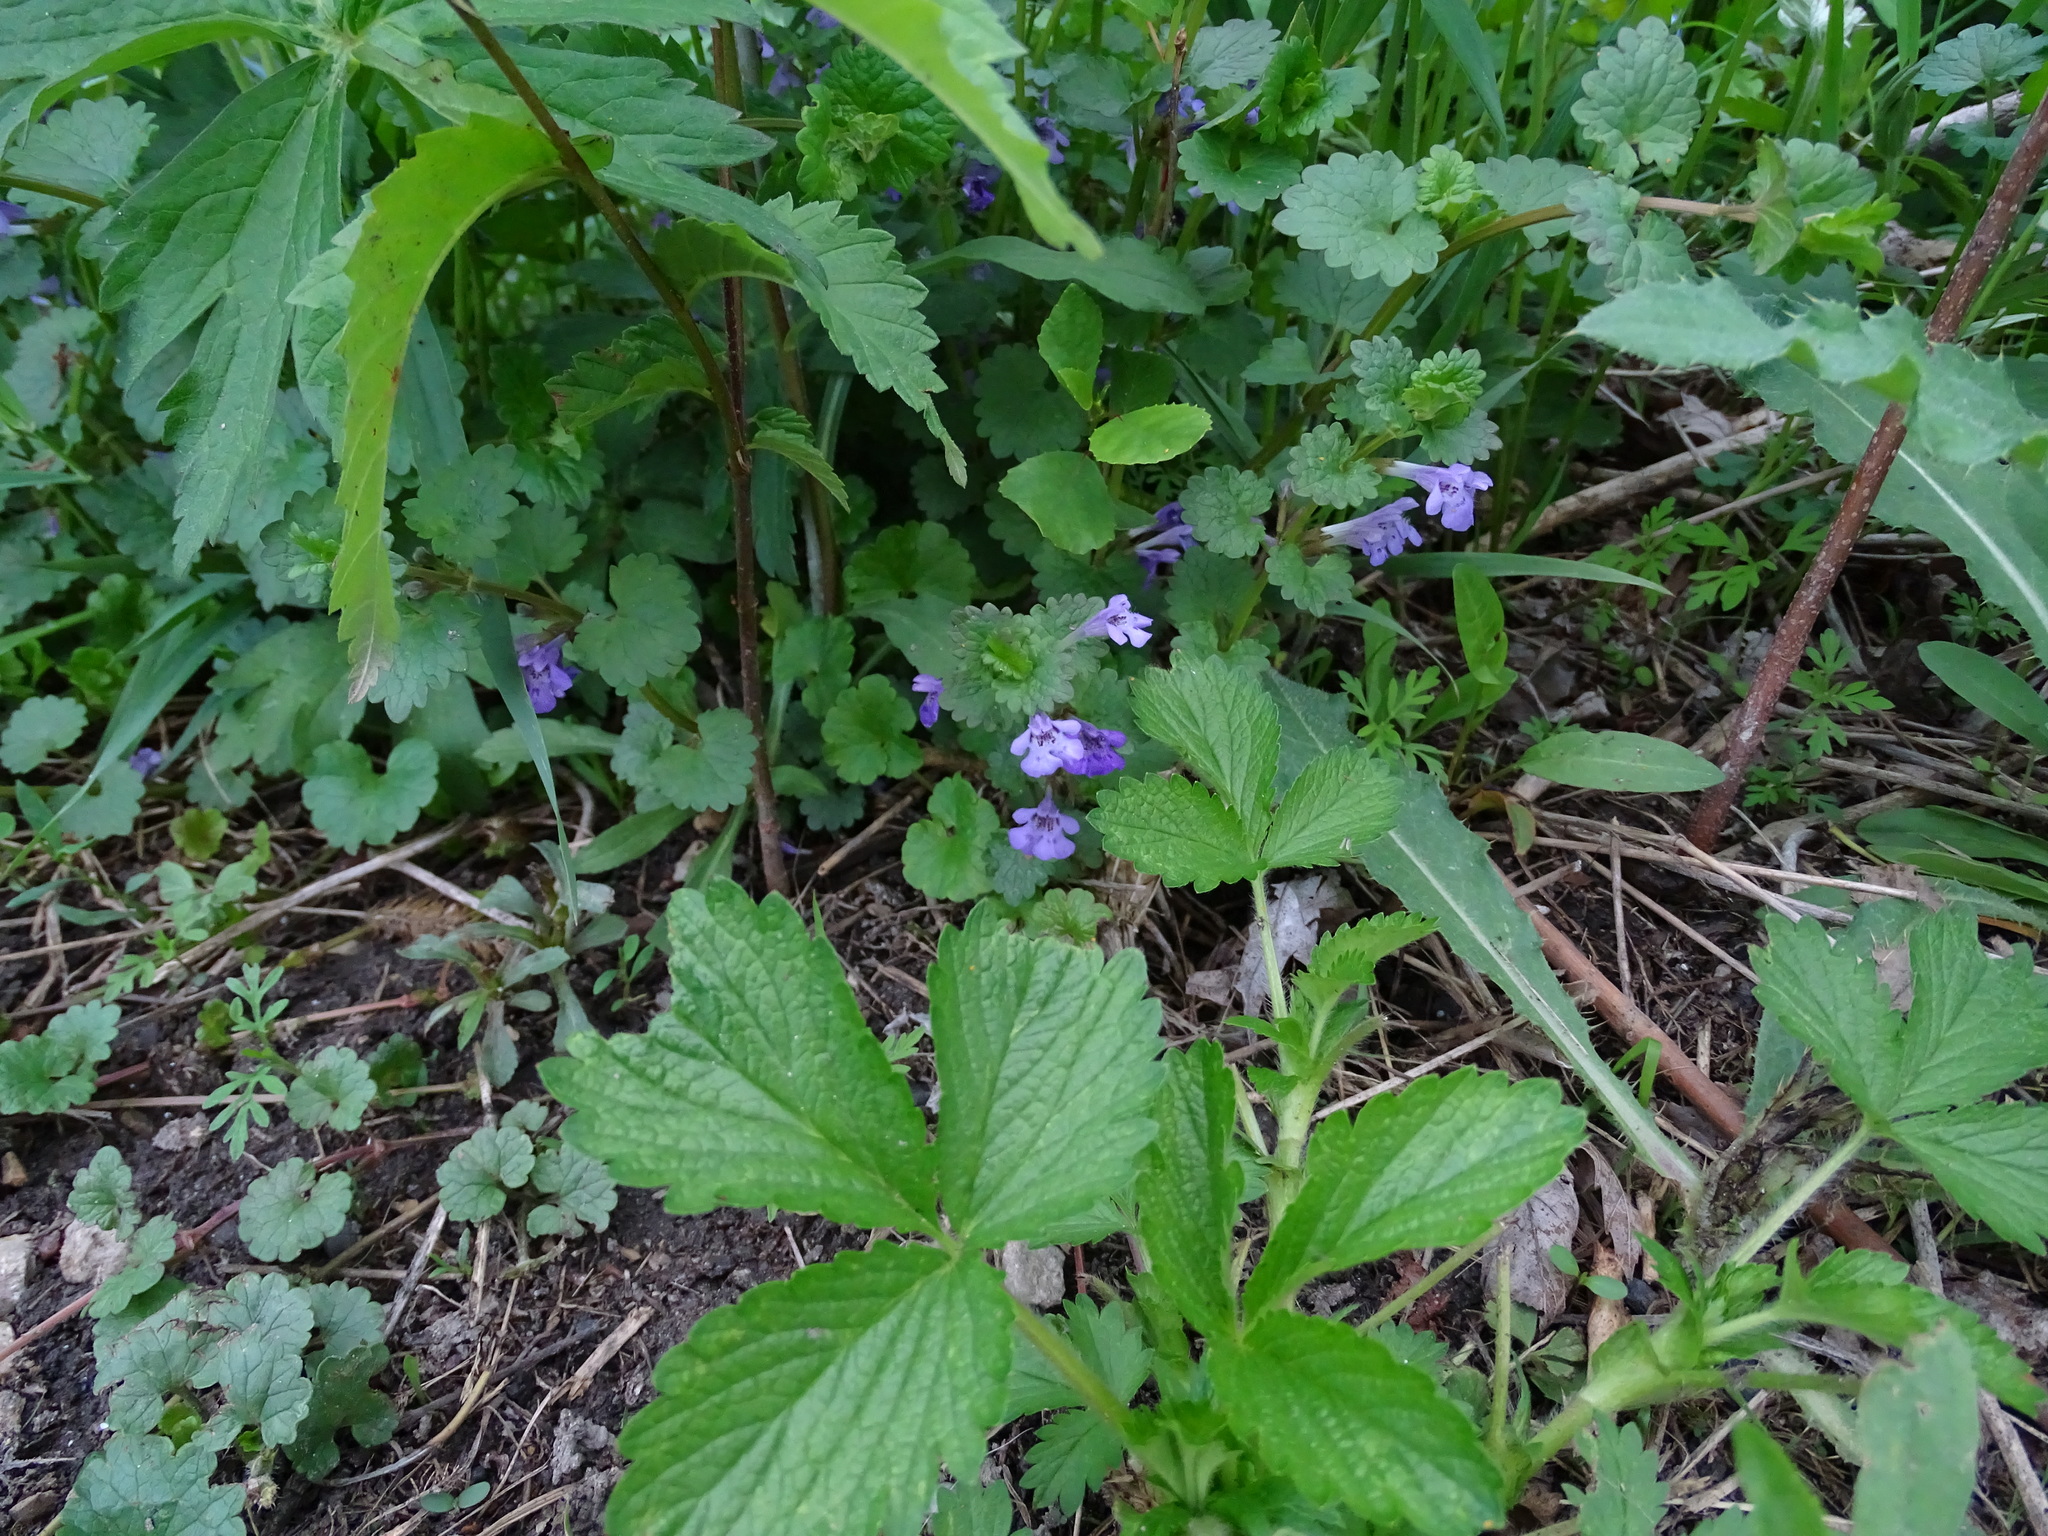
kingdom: Plantae
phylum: Tracheophyta
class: Magnoliopsida
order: Lamiales
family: Lamiaceae
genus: Glechoma
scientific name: Glechoma hederacea
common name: Ground ivy
